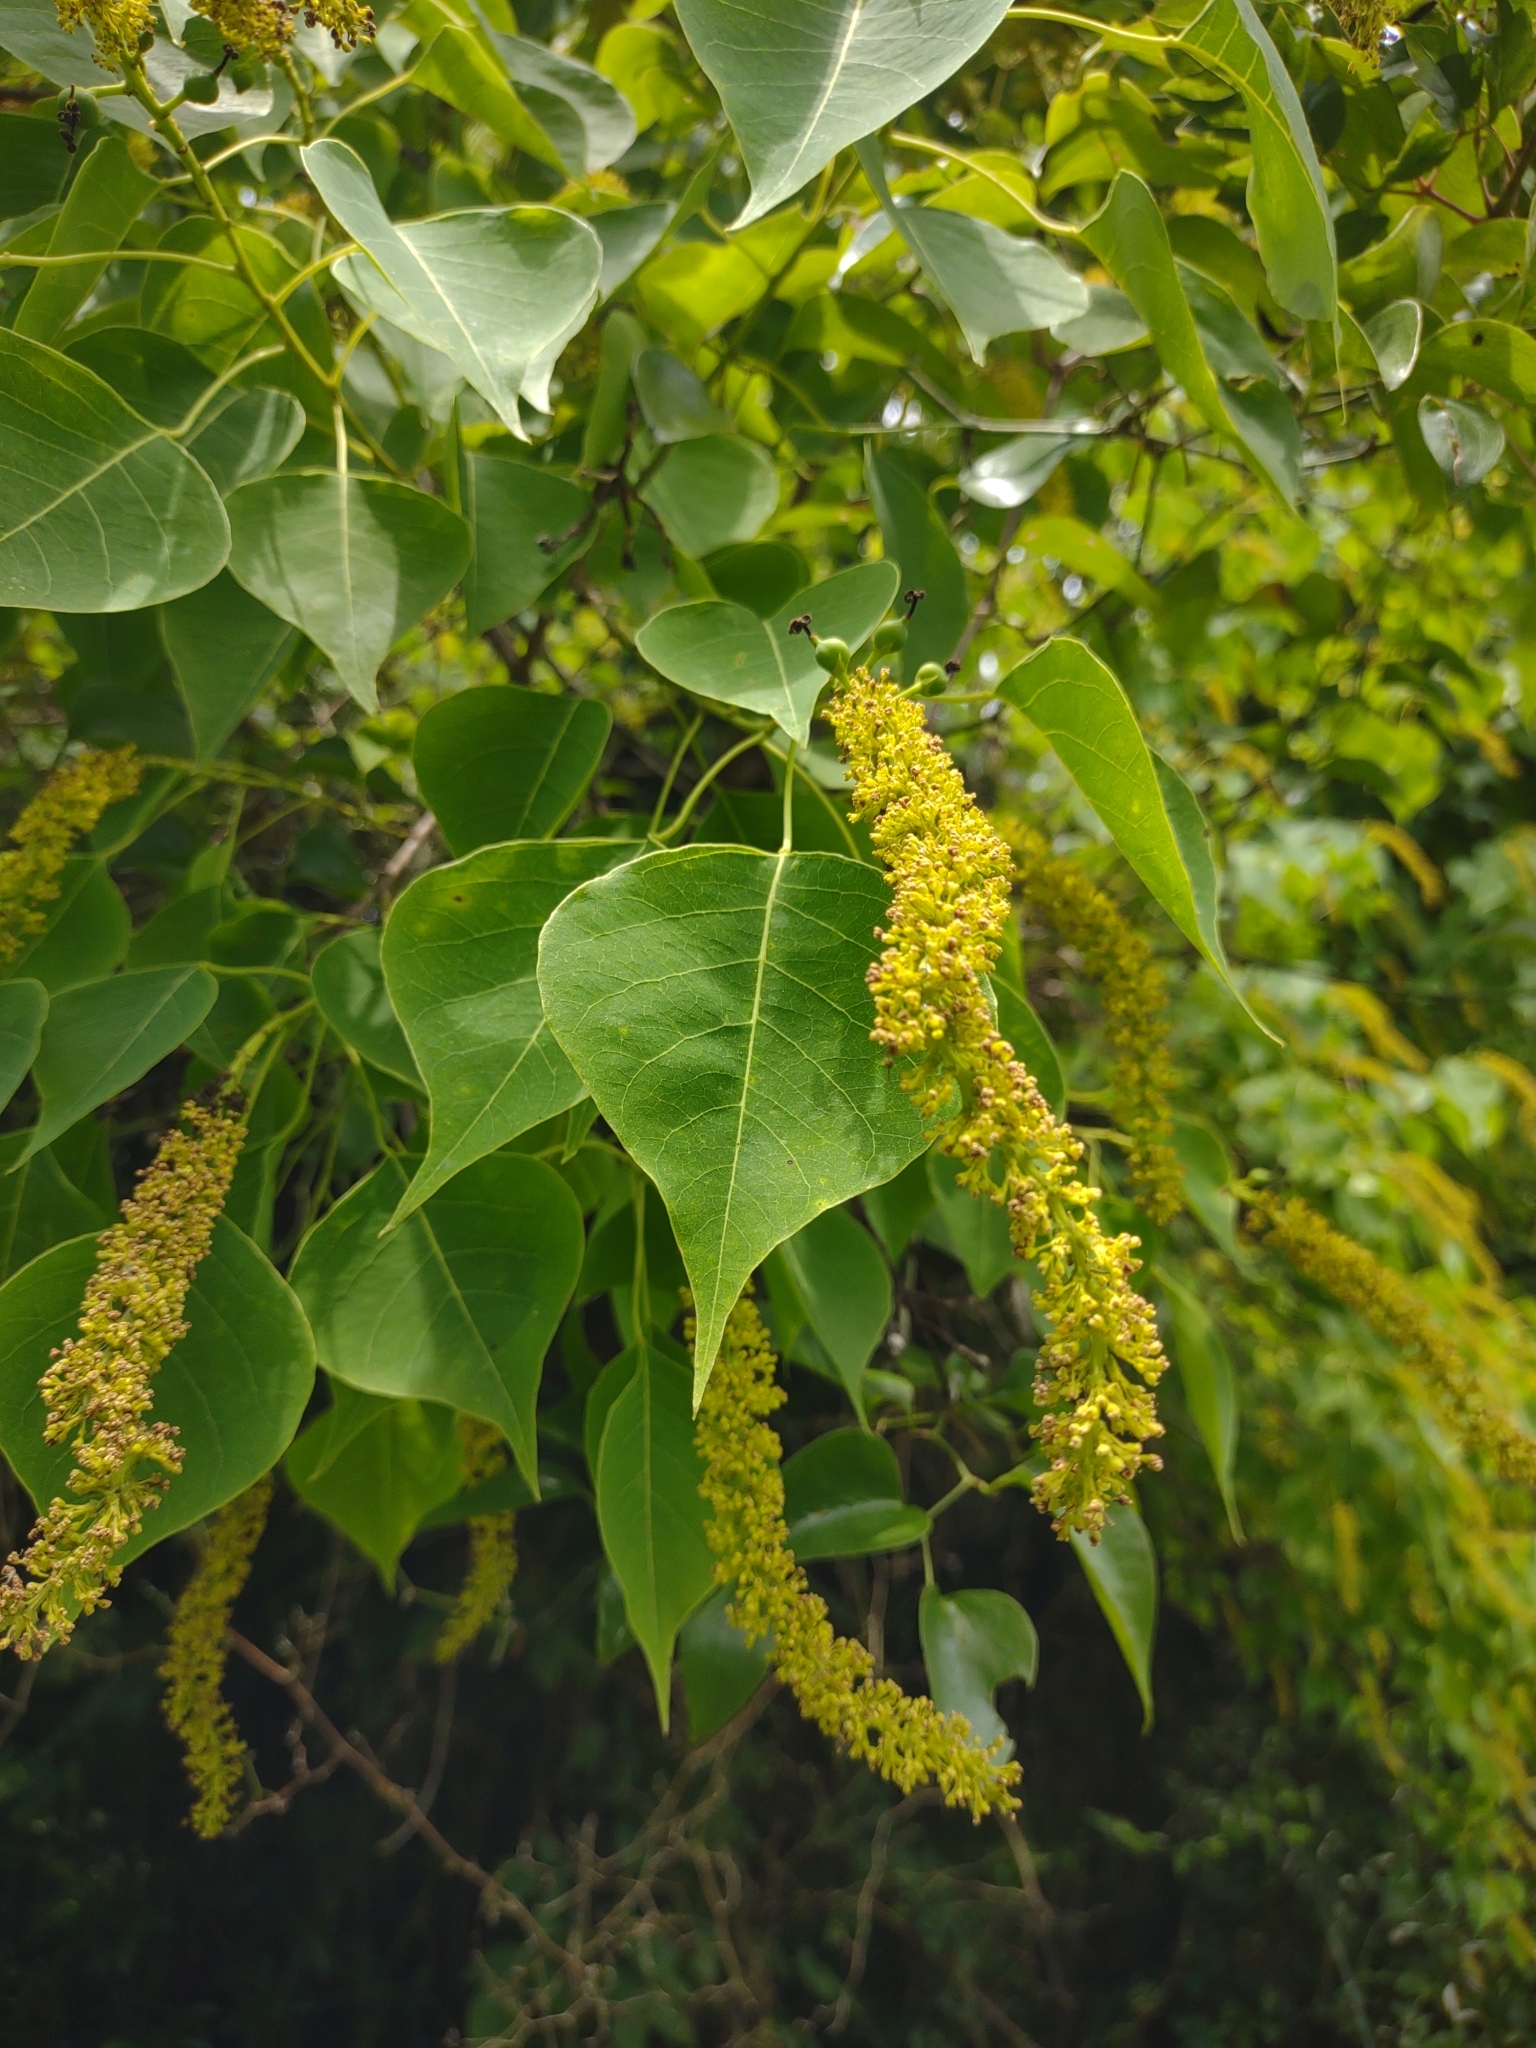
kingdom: Plantae
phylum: Tracheophyta
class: Magnoliopsida
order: Malpighiales
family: Euphorbiaceae
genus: Triadica
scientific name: Triadica sebifera
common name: Chinese tallow
